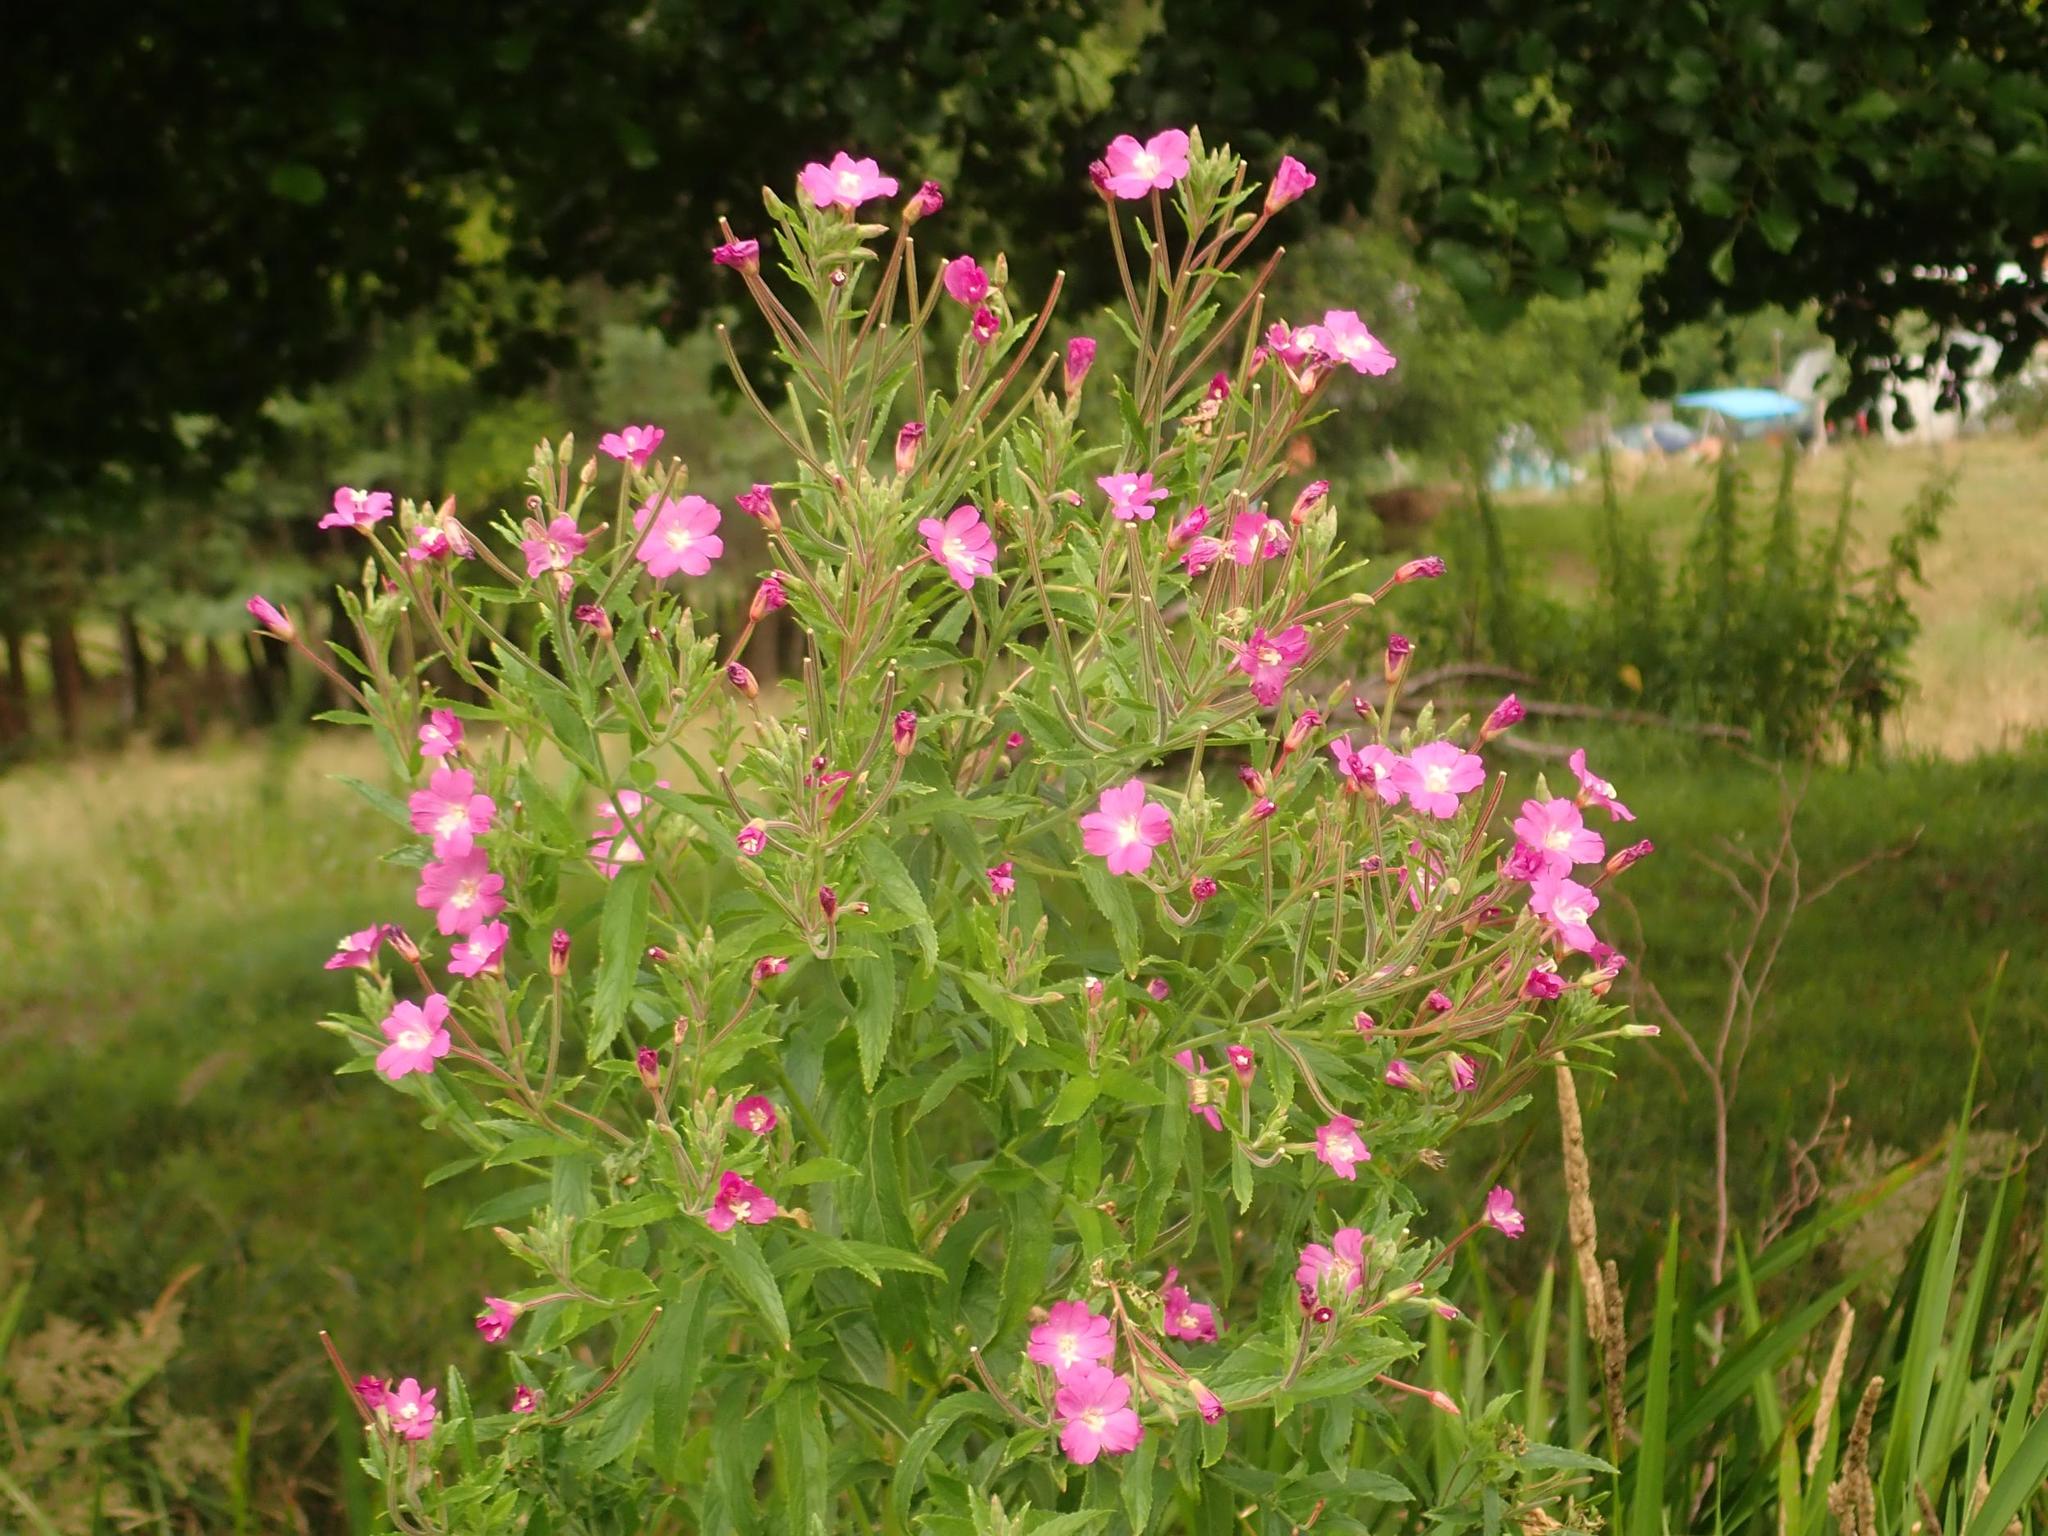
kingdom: Plantae
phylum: Tracheophyta
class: Magnoliopsida
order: Myrtales
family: Onagraceae
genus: Epilobium
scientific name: Epilobium hirsutum
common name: Great willowherb
